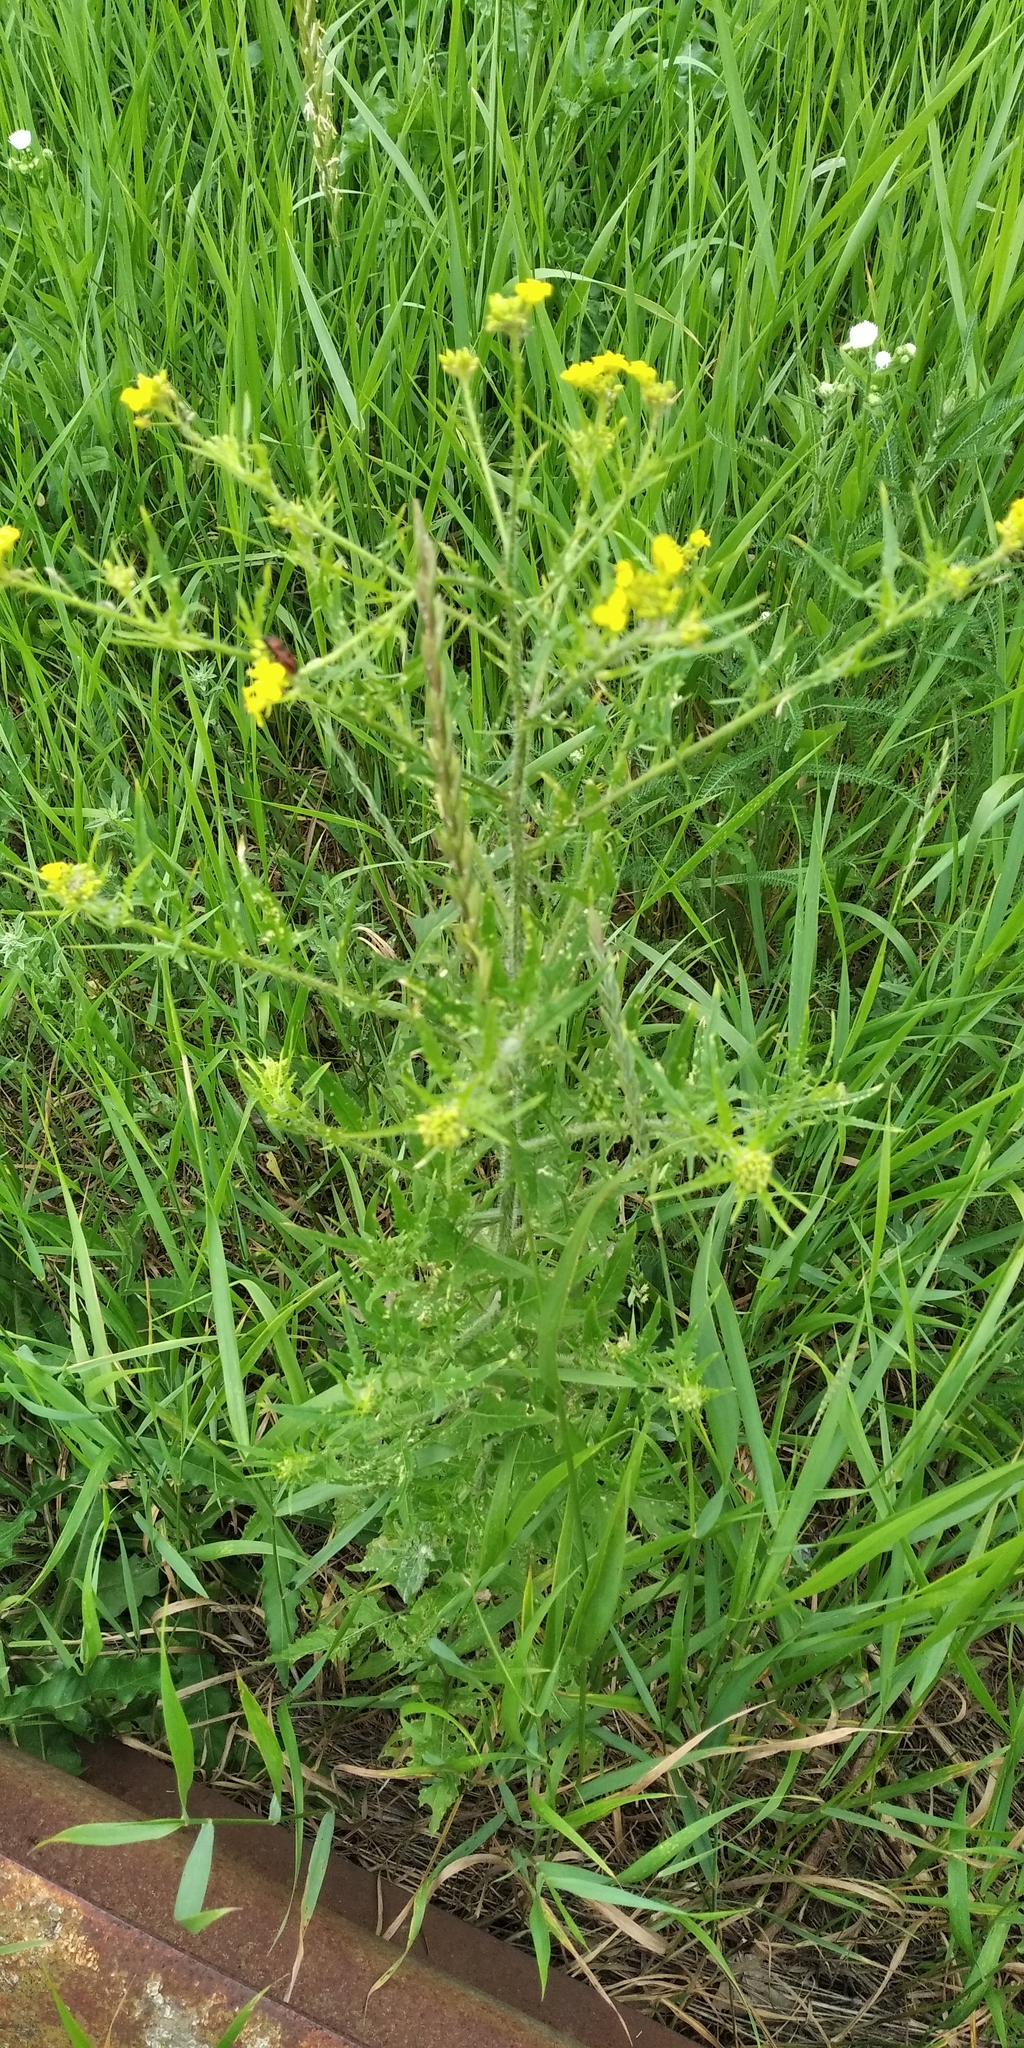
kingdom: Plantae
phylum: Tracheophyta
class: Magnoliopsida
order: Brassicales
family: Brassicaceae
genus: Sisymbrium
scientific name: Sisymbrium loeselii
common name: False london-rocket
